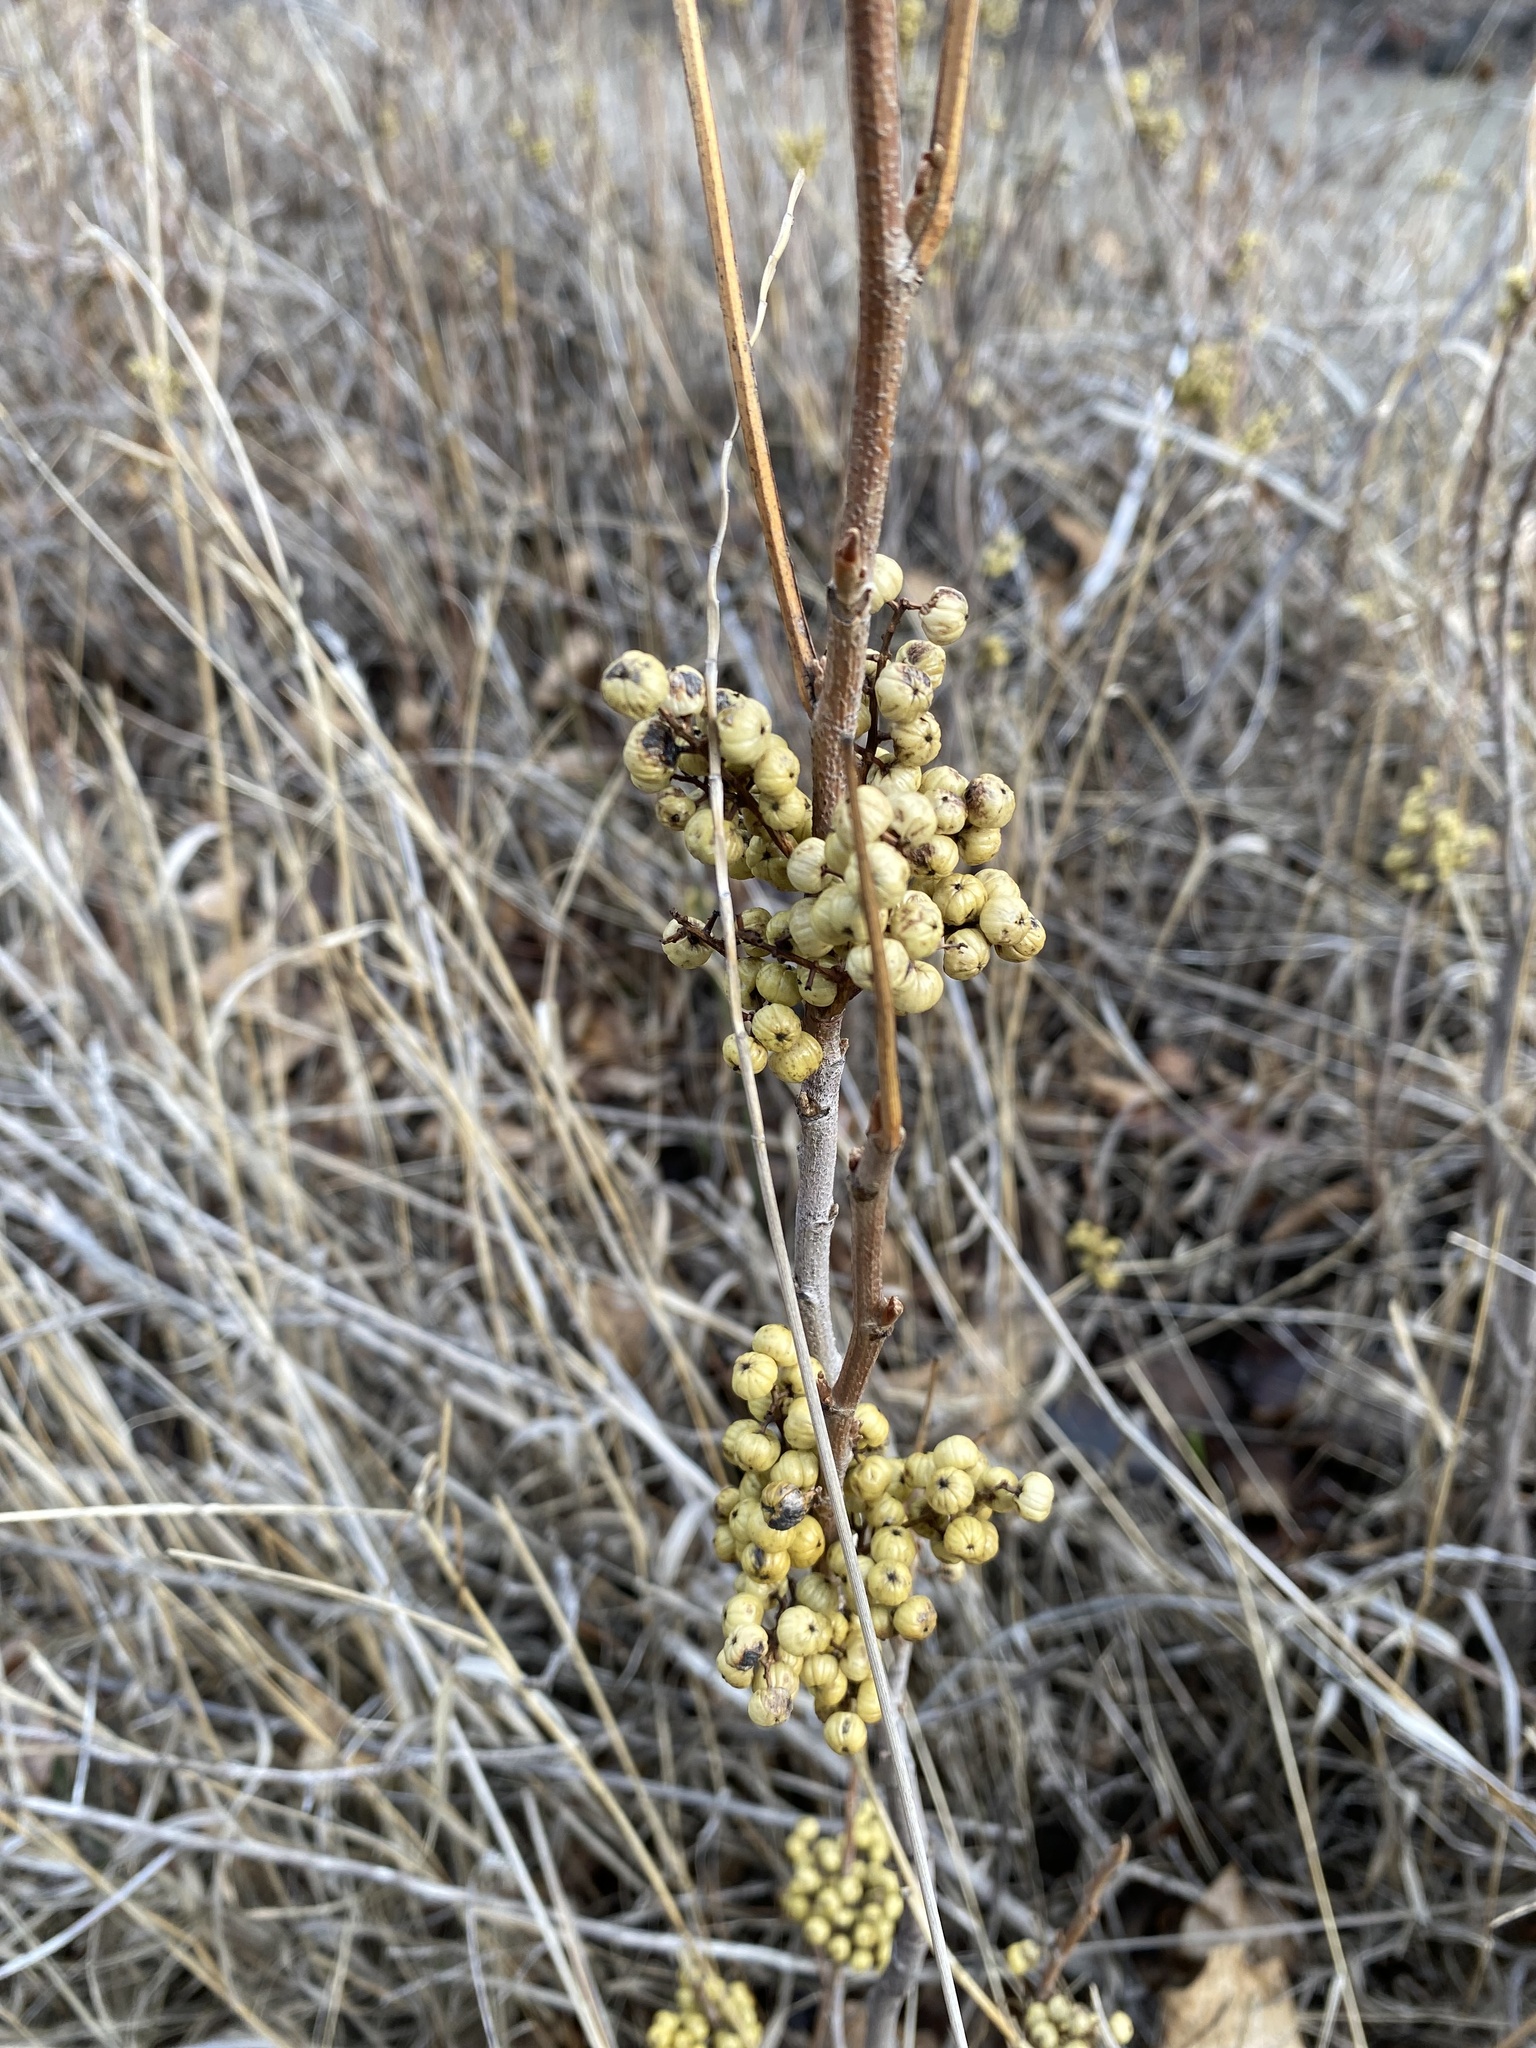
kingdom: Plantae
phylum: Tracheophyta
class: Magnoliopsida
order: Sapindales
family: Anacardiaceae
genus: Toxicodendron
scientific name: Toxicodendron rydbergii
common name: Rydberg's poison-ivy
